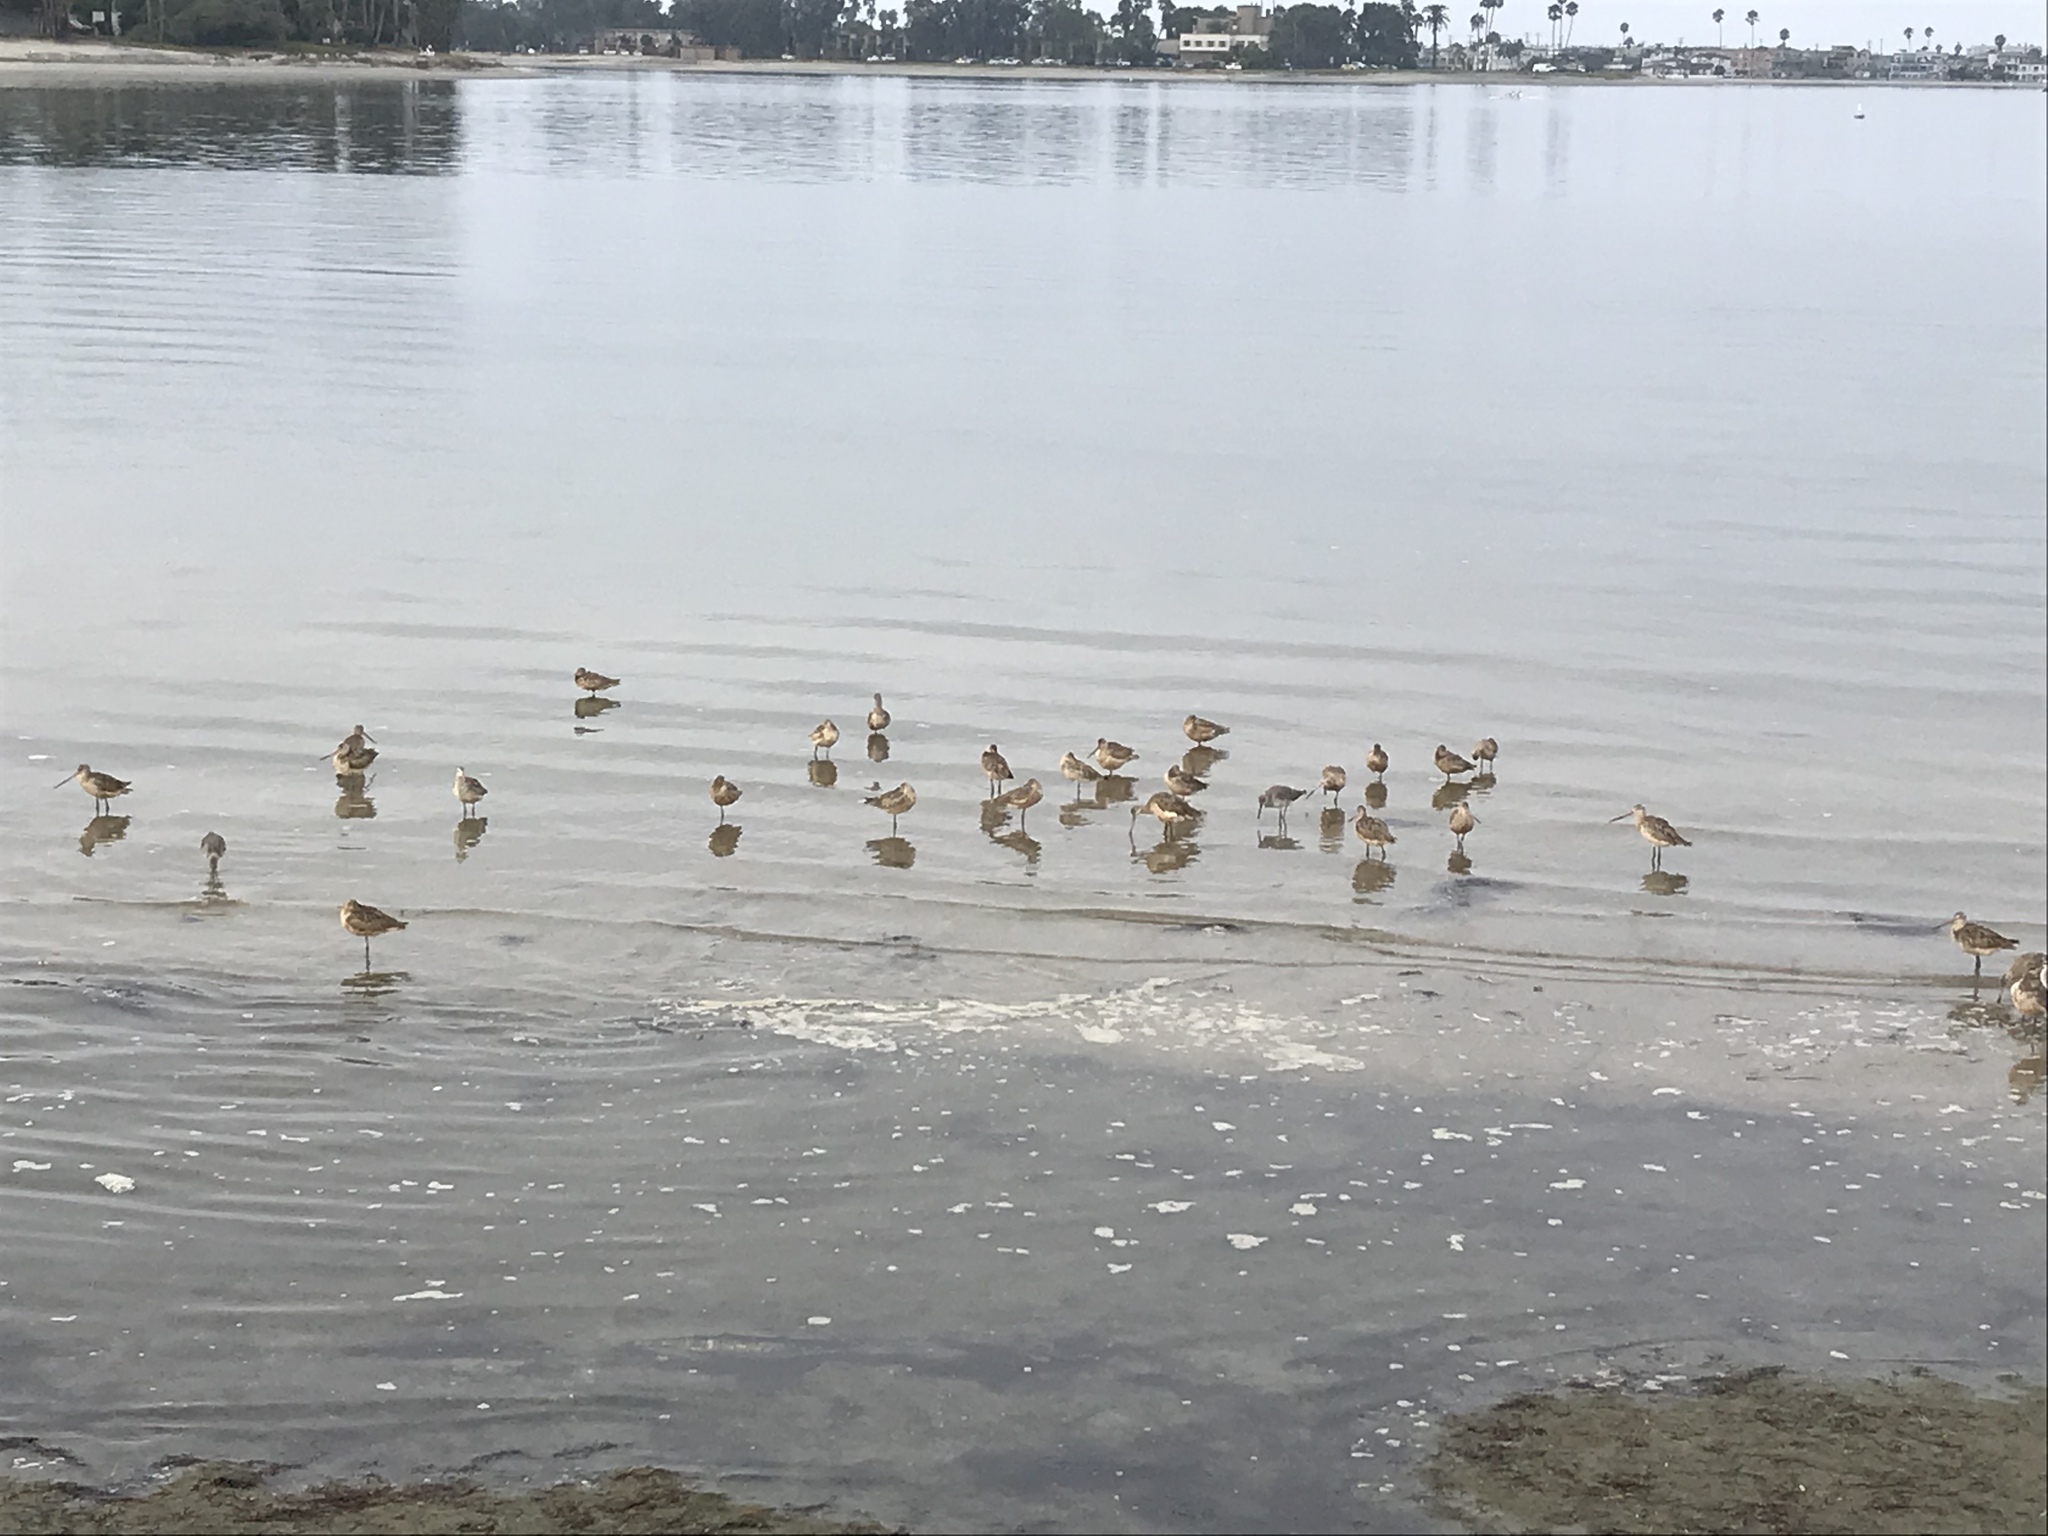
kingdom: Animalia
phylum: Chordata
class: Aves
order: Charadriiformes
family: Scolopacidae
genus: Tringa
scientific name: Tringa semipalmata
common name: Willet
